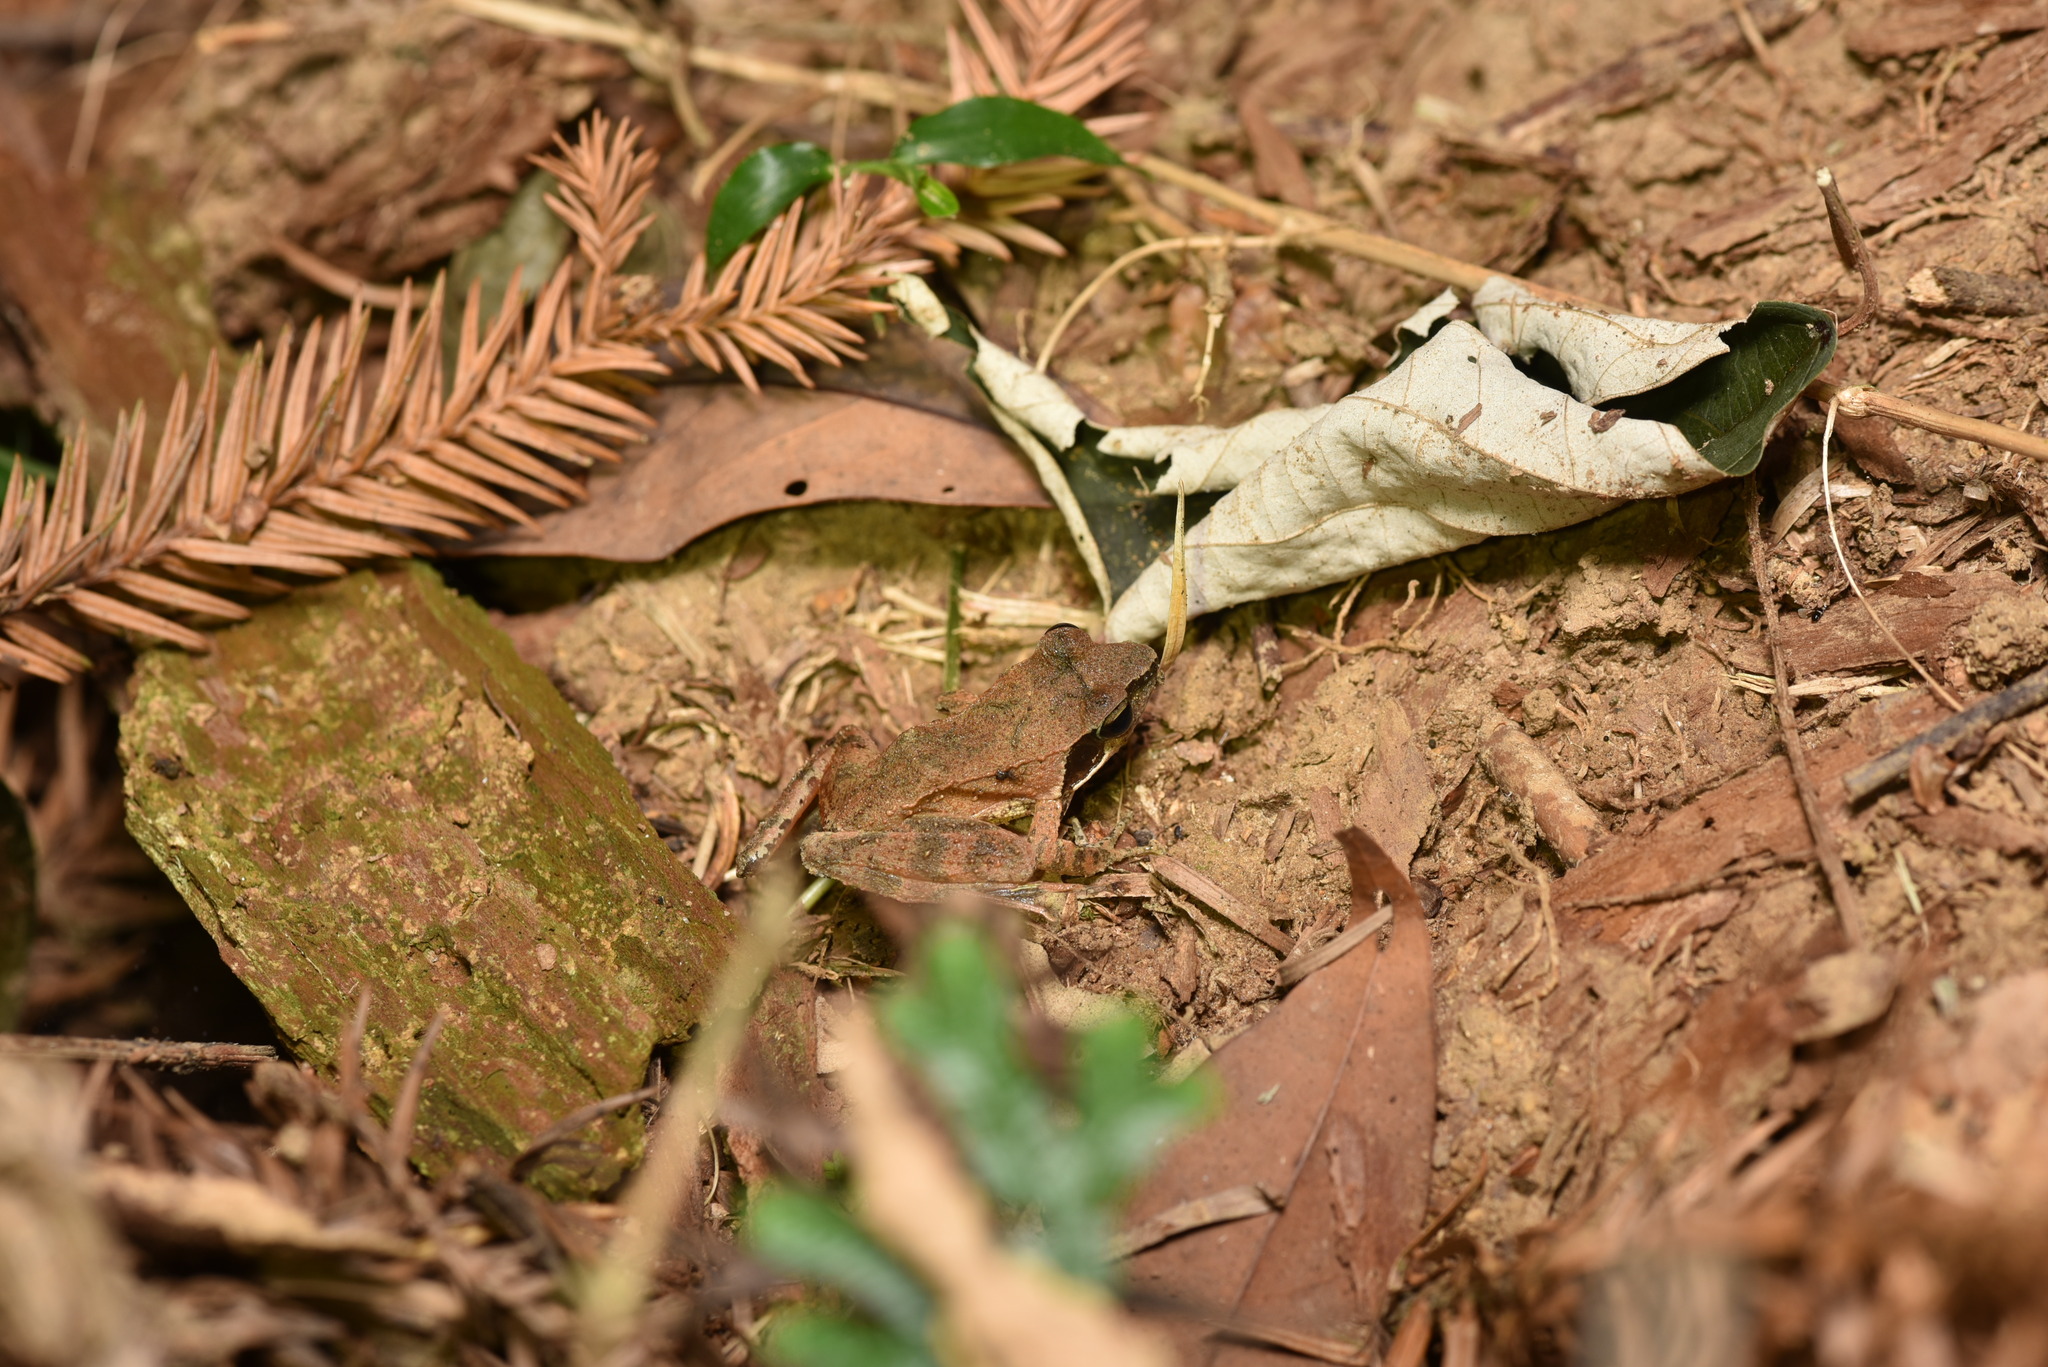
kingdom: Animalia
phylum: Chordata
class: Amphibia
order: Anura
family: Ranidae
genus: Rana
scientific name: Rana sauteri
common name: Kanshirei village frog
